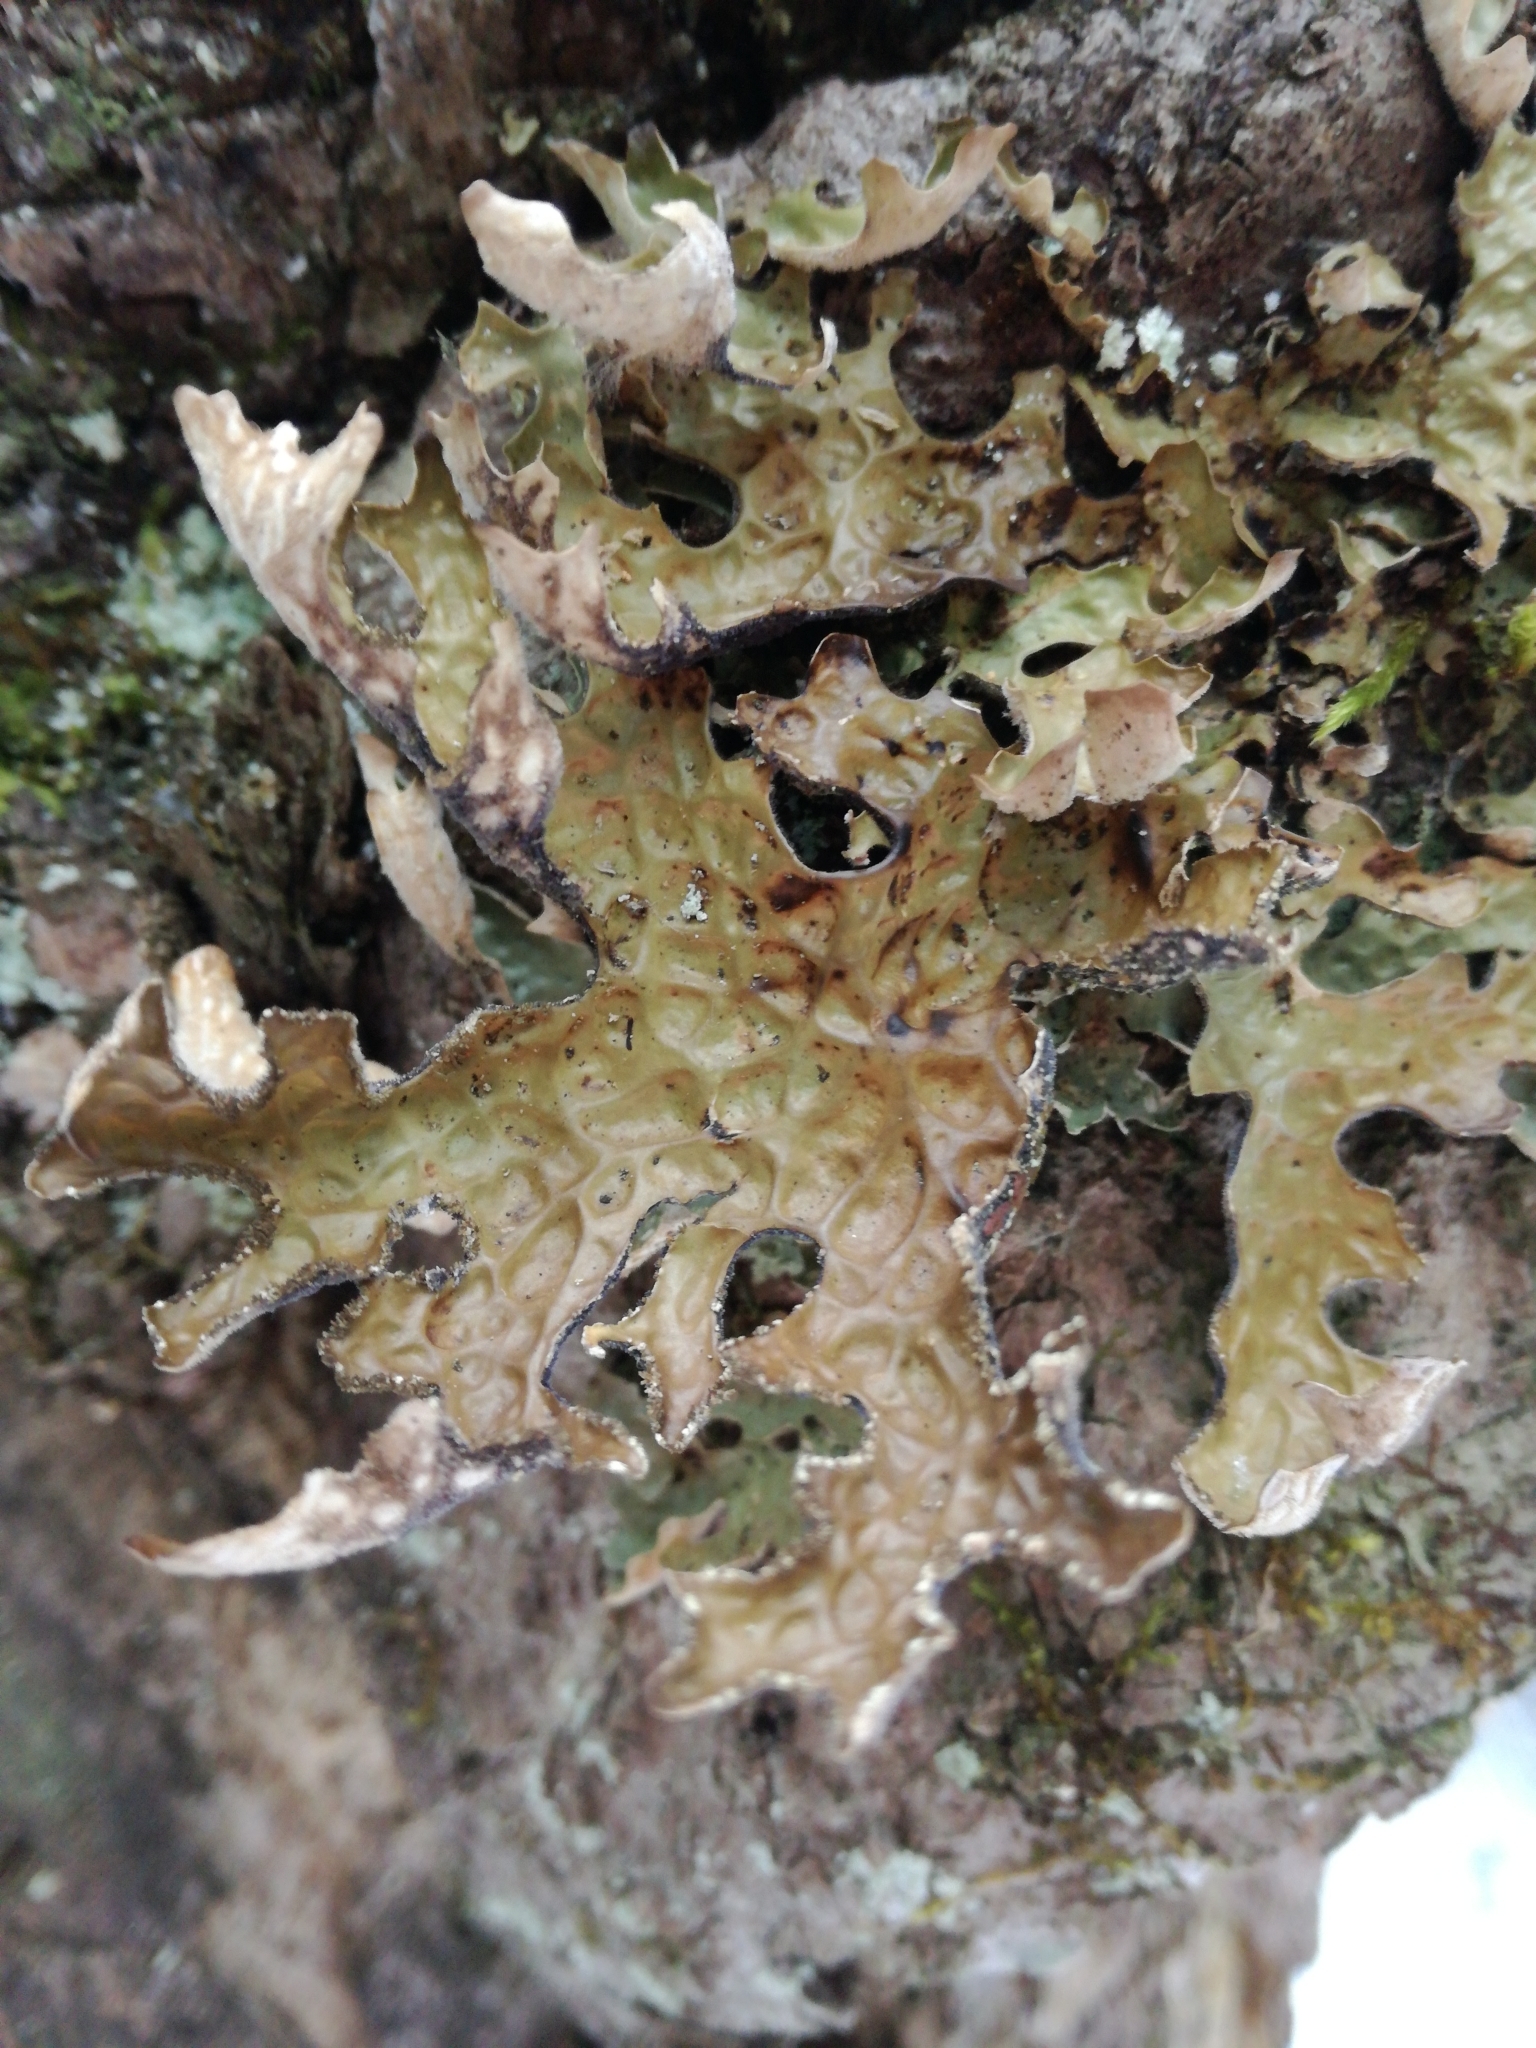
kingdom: Fungi
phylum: Ascomycota
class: Lecanoromycetes
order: Peltigerales
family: Lobariaceae
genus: Lobaria
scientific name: Lobaria pulmonaria
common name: Lungwort
